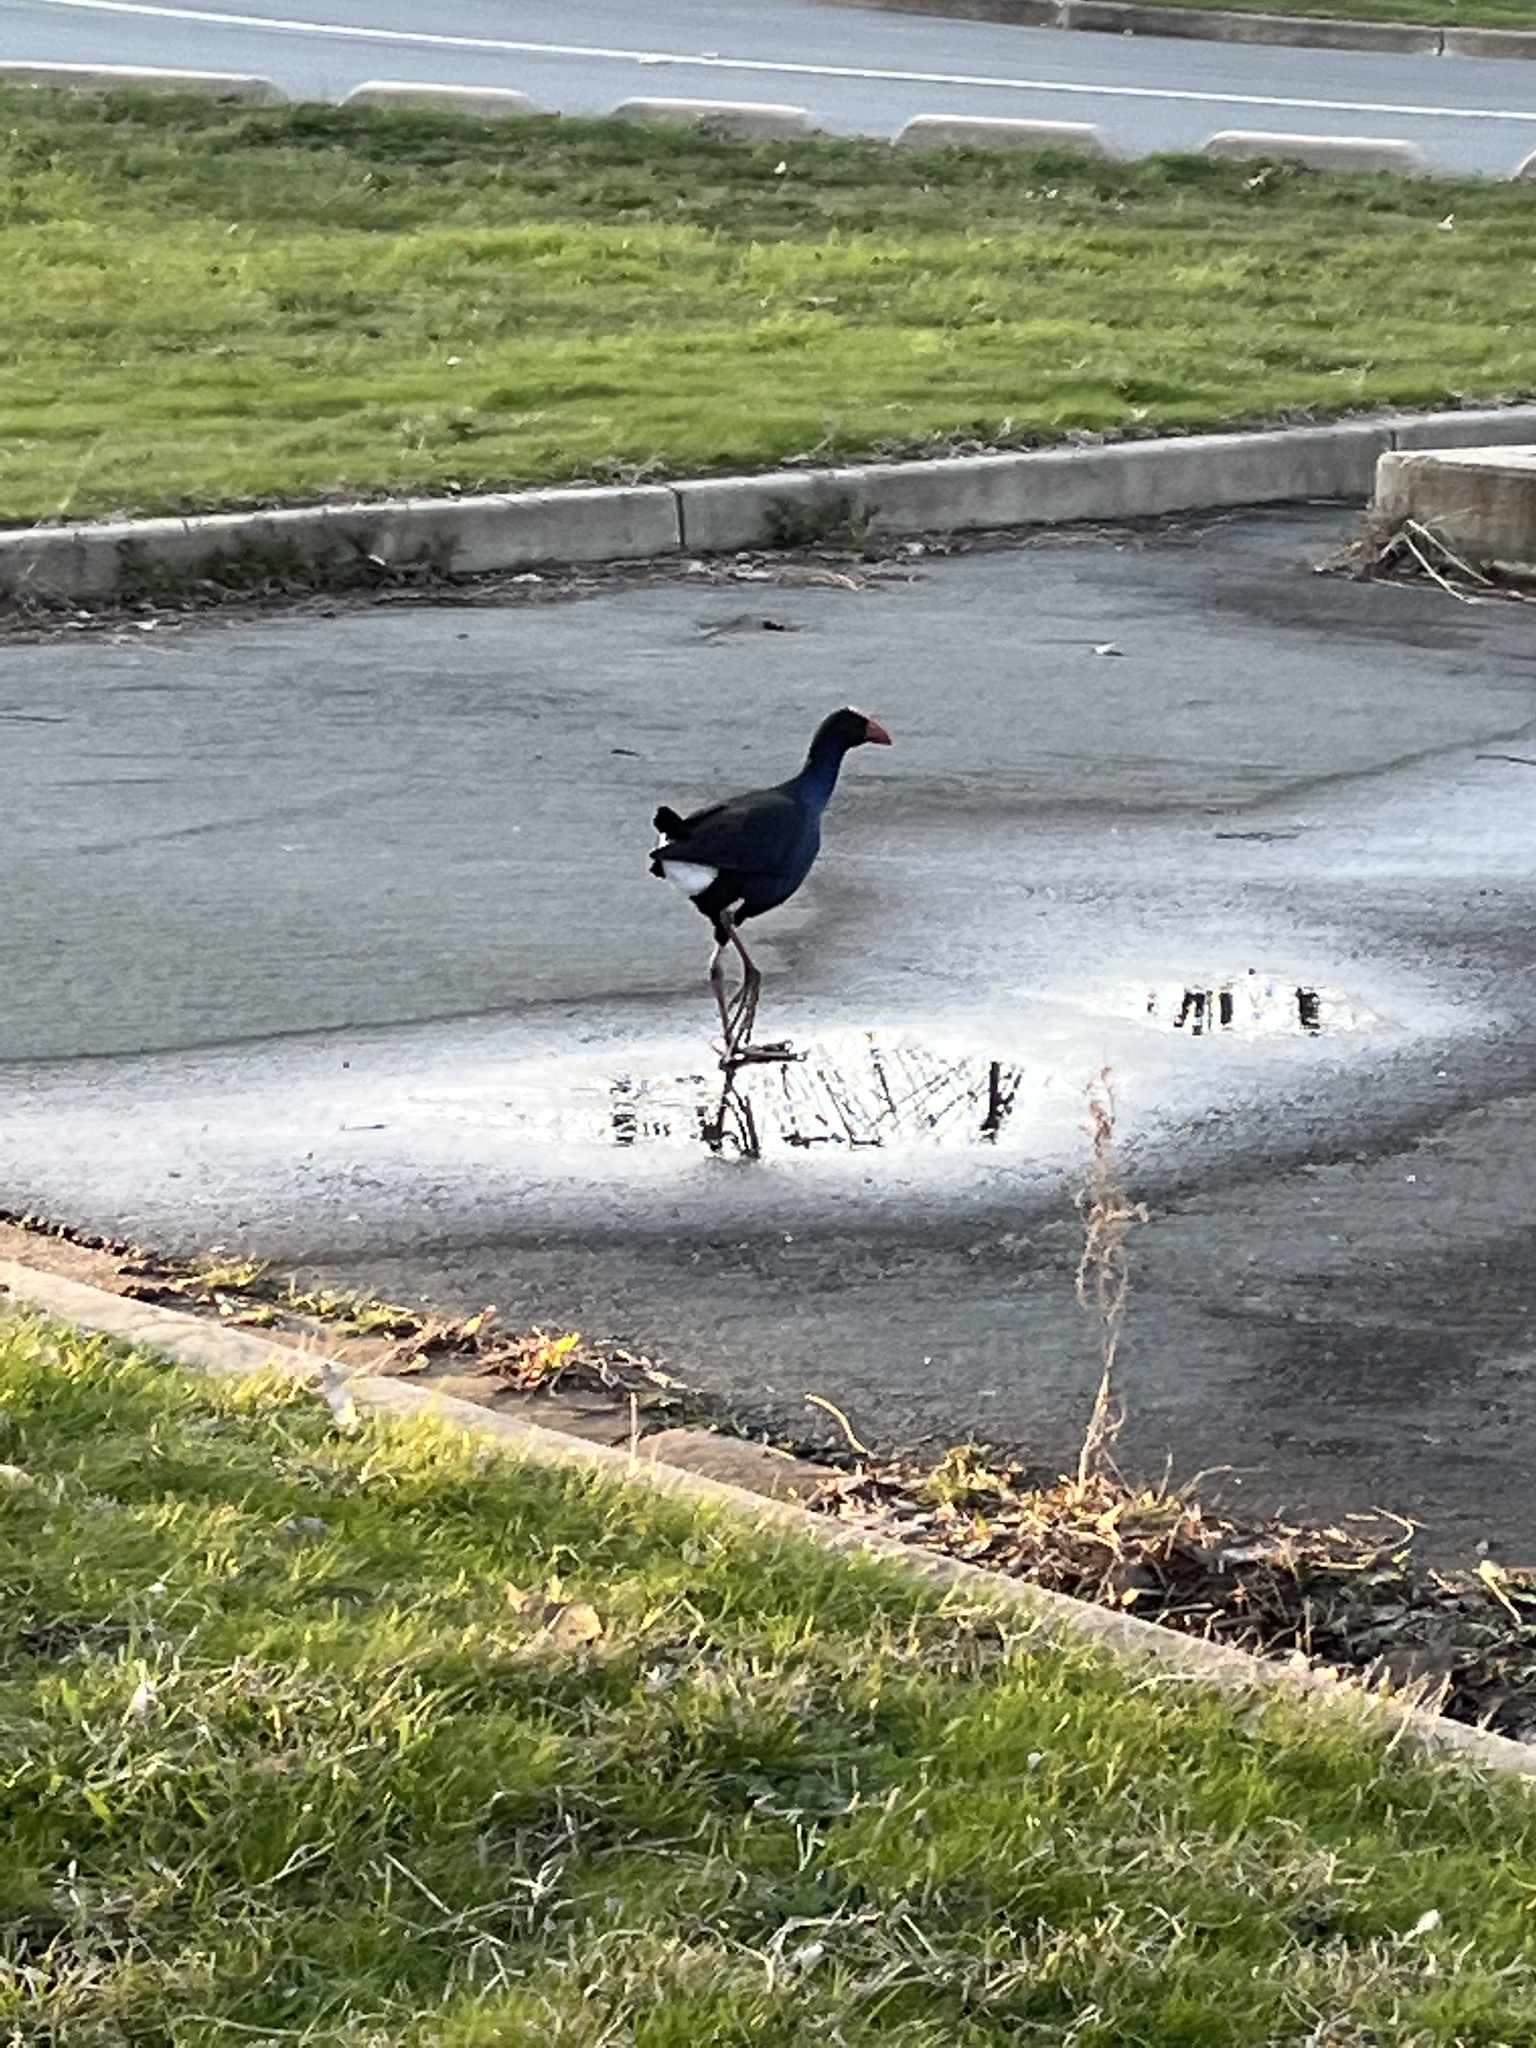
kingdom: Animalia
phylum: Chordata
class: Aves
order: Gruiformes
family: Rallidae
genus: Porphyrio
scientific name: Porphyrio melanotus
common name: Australasian swamphen
